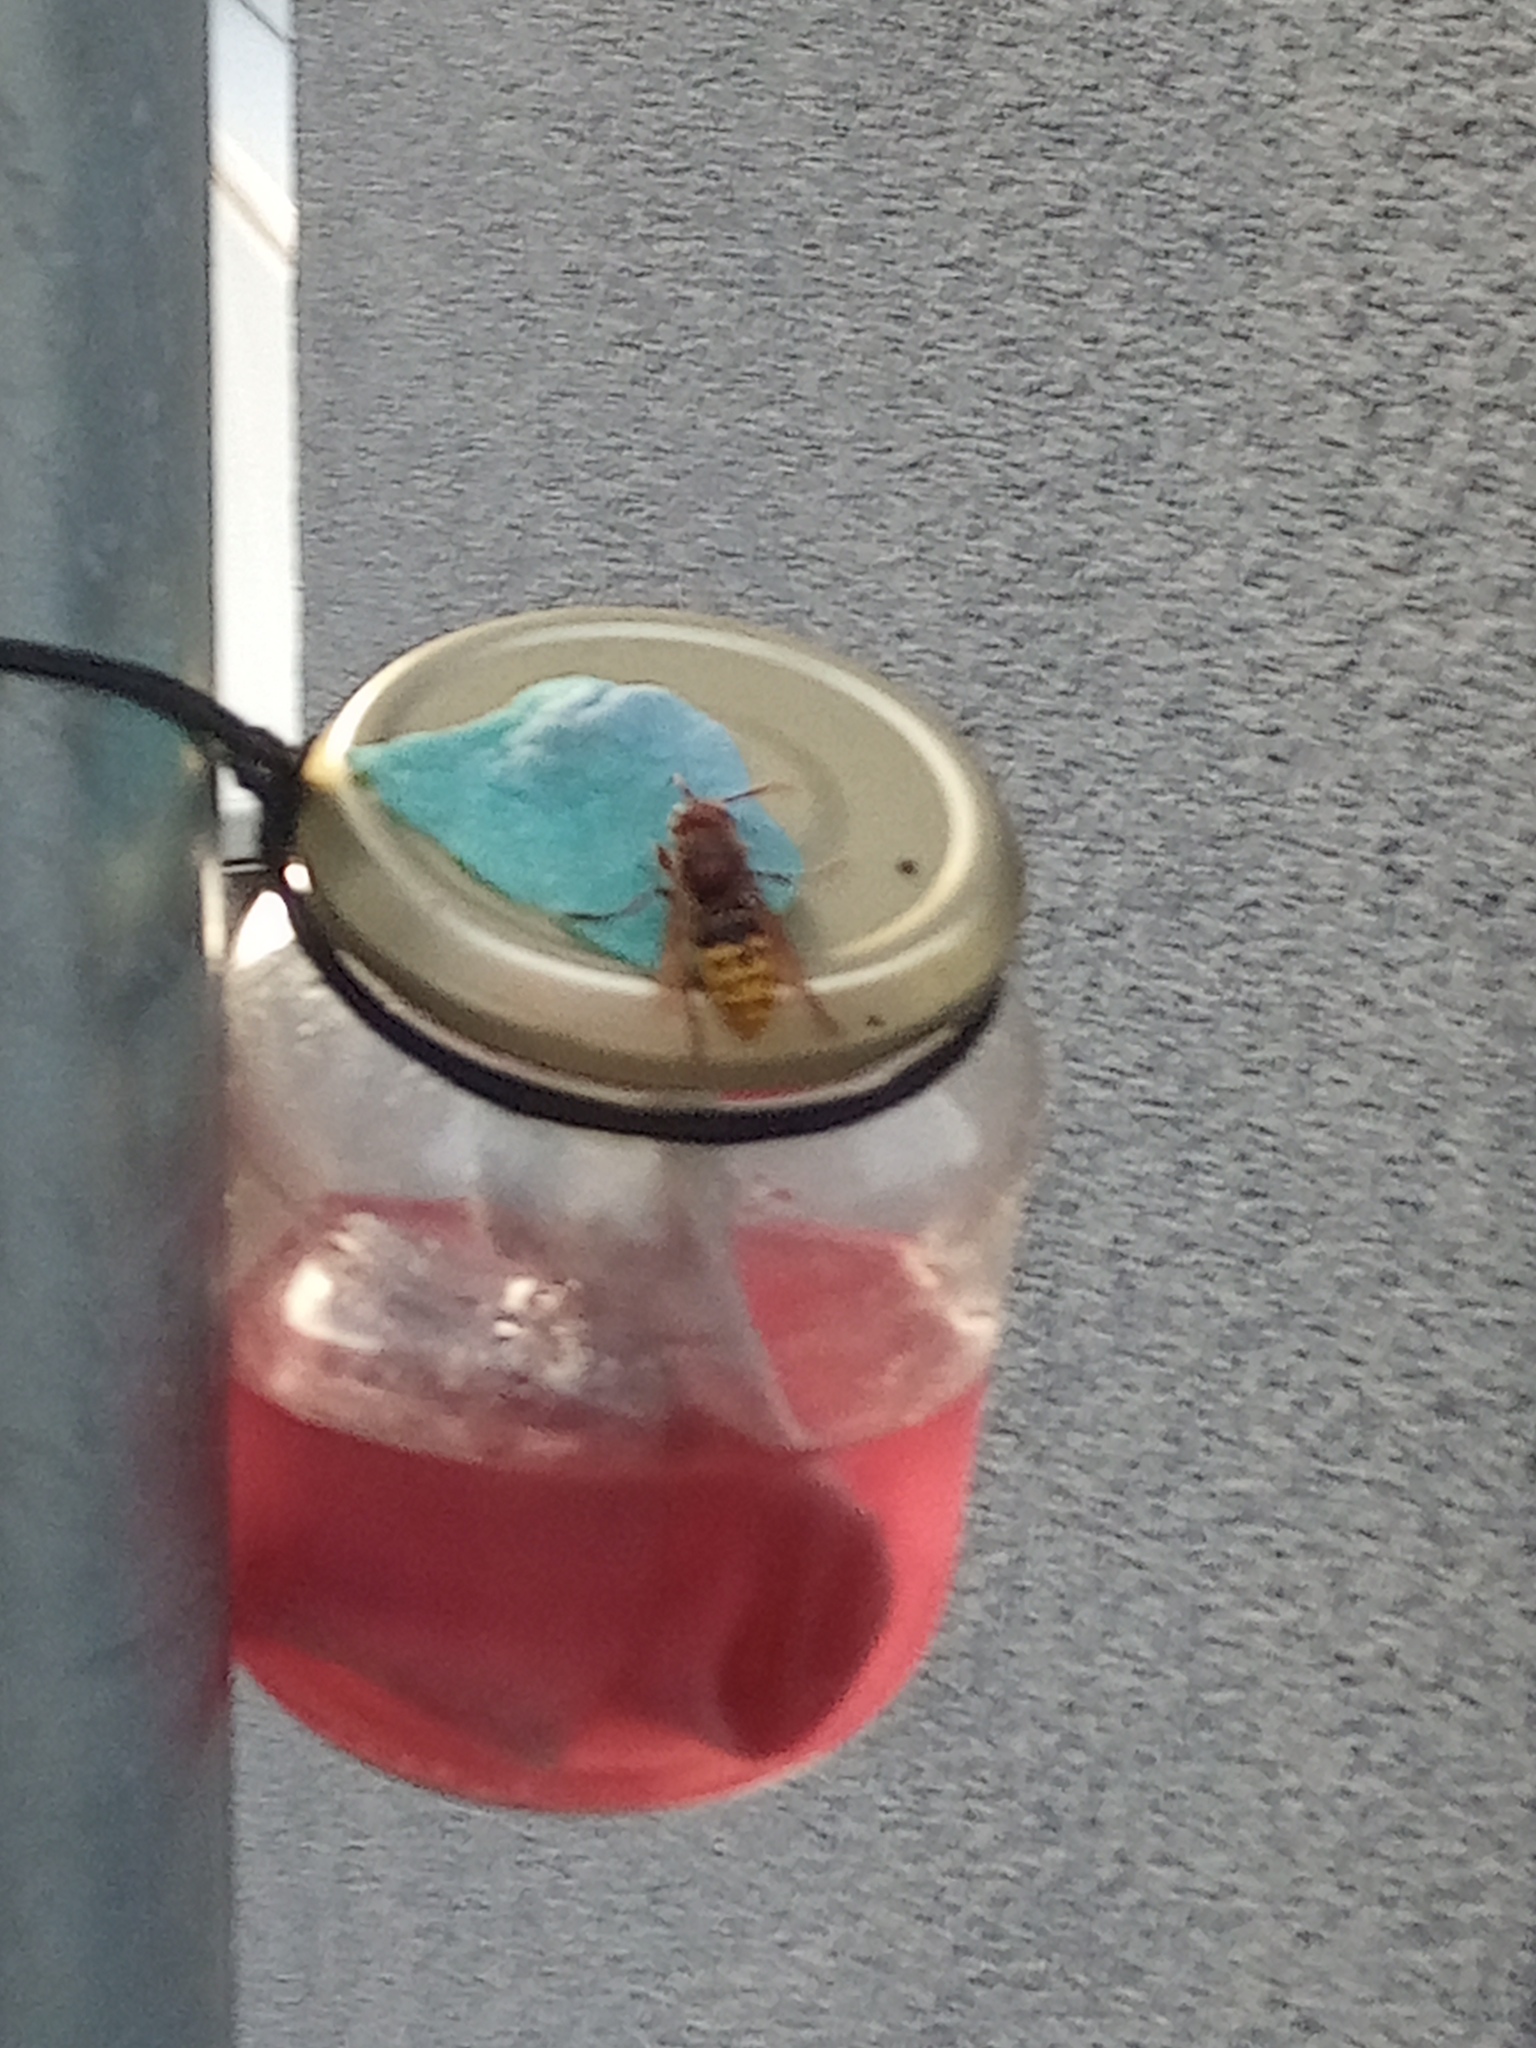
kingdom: Animalia
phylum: Arthropoda
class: Insecta
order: Hymenoptera
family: Vespidae
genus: Vespa
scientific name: Vespa crabro
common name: Hornet
